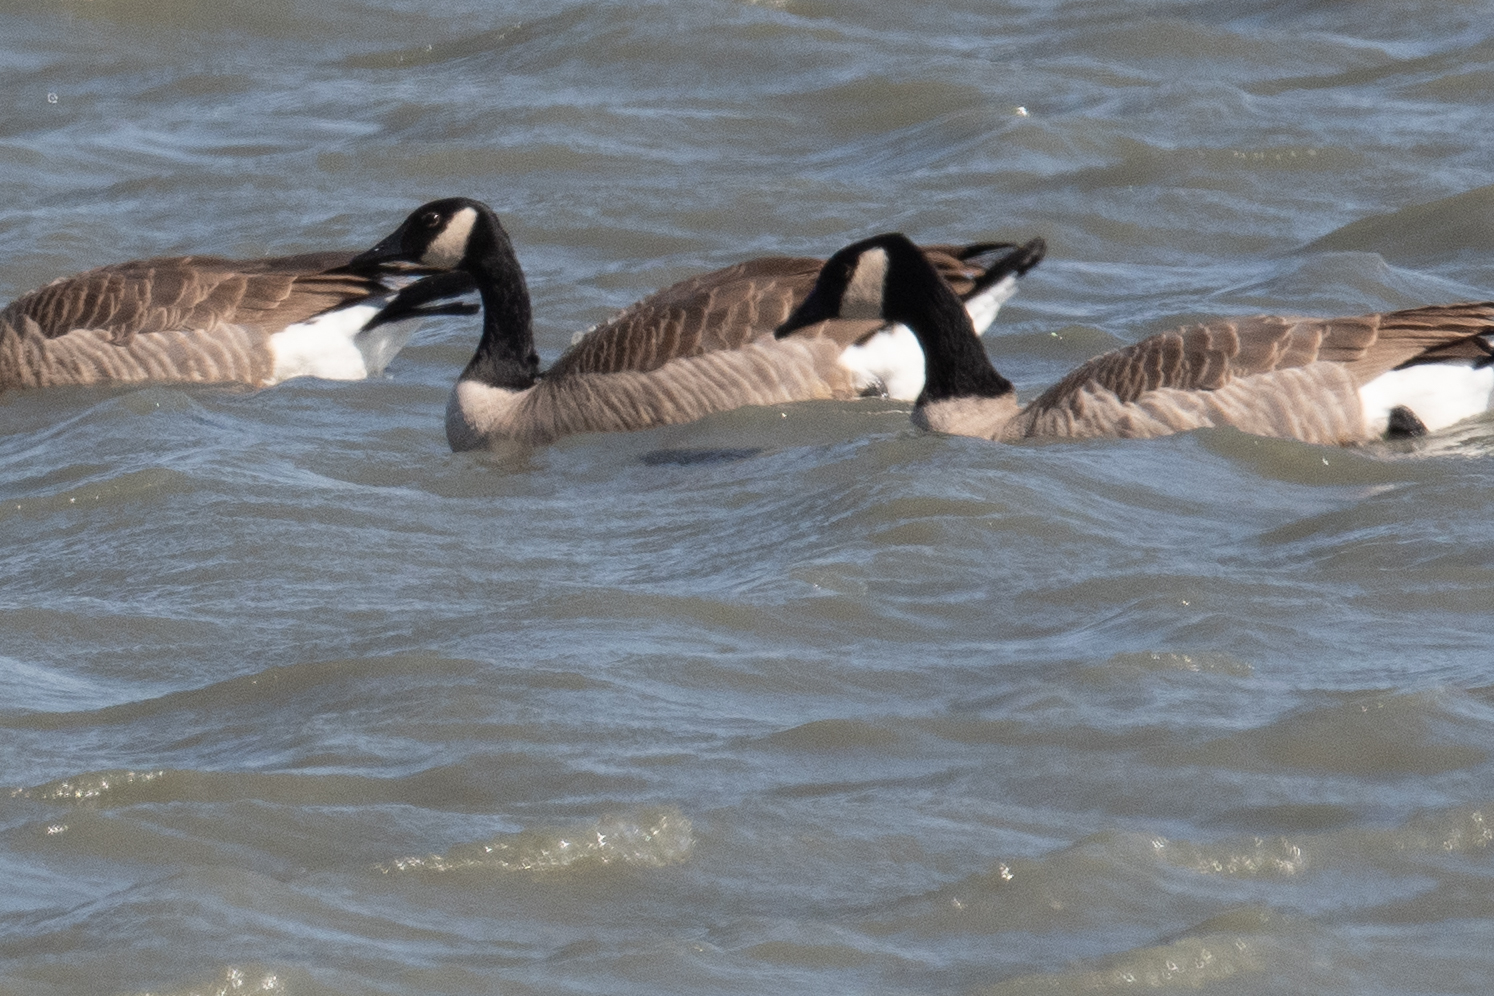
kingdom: Animalia
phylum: Chordata
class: Aves
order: Anseriformes
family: Anatidae
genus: Branta
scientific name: Branta canadensis
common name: Canada goose
